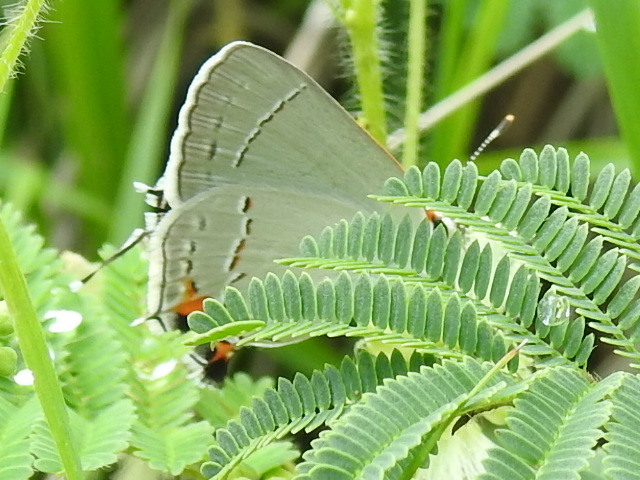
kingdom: Animalia
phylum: Arthropoda
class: Insecta
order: Lepidoptera
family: Lycaenidae
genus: Strymon
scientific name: Strymon melinus
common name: Gray hairstreak
